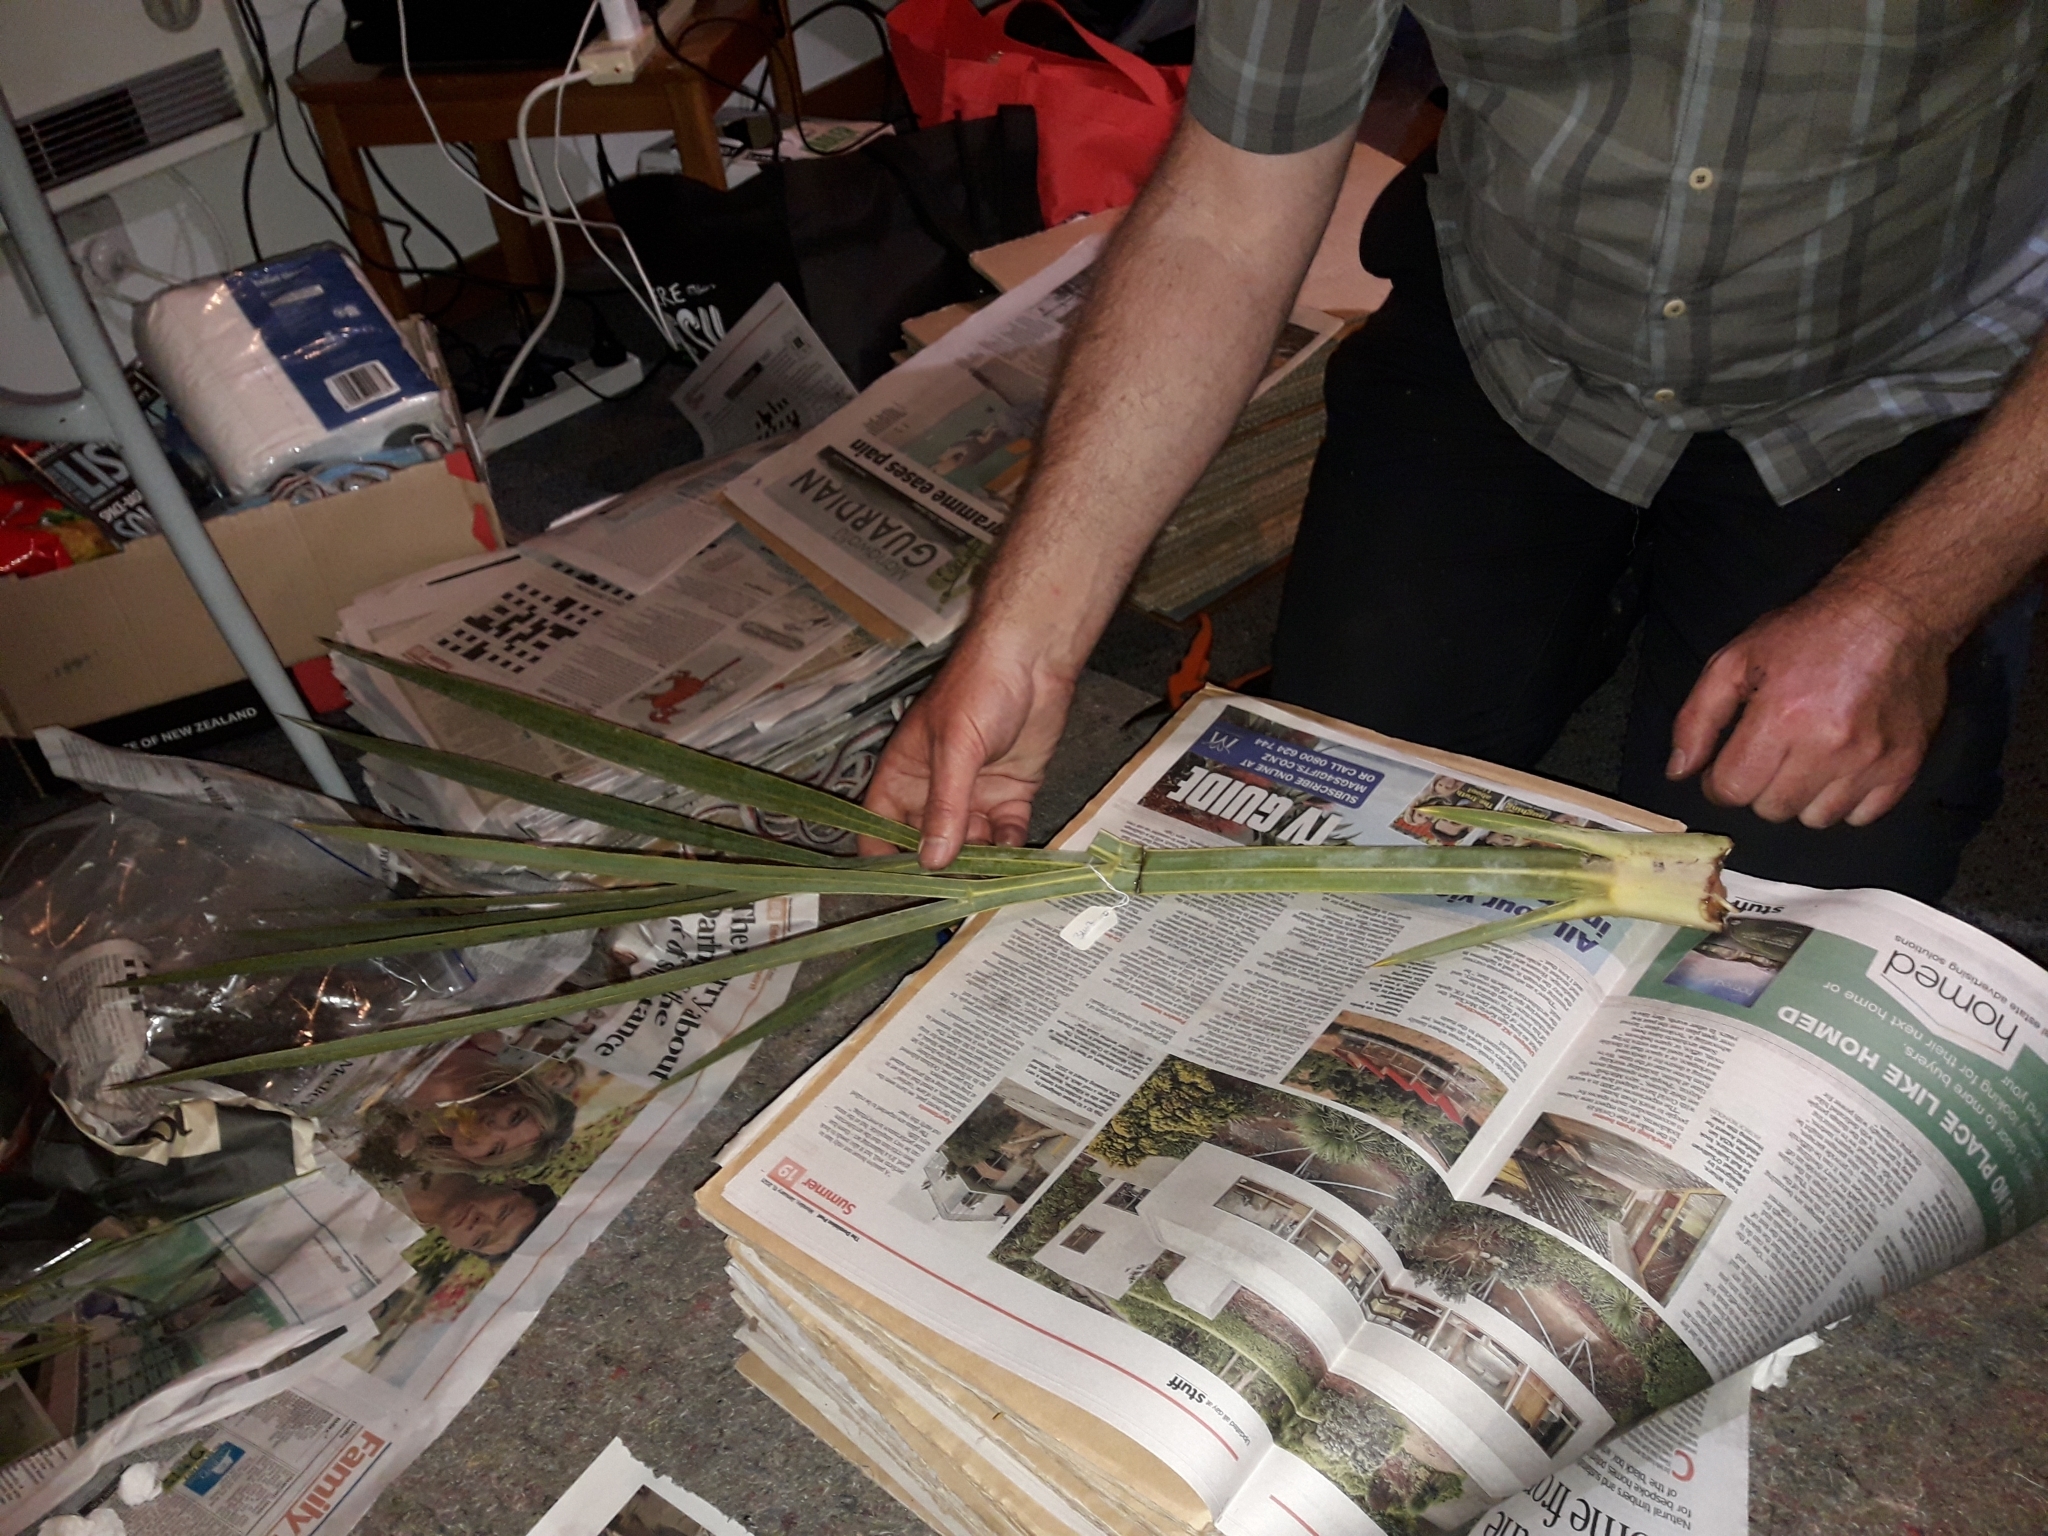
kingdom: Plantae
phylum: Tracheophyta
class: Magnoliopsida
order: Apiales
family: Apiaceae
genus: Aciphylla
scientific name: Aciphylla scott-thomsonii
